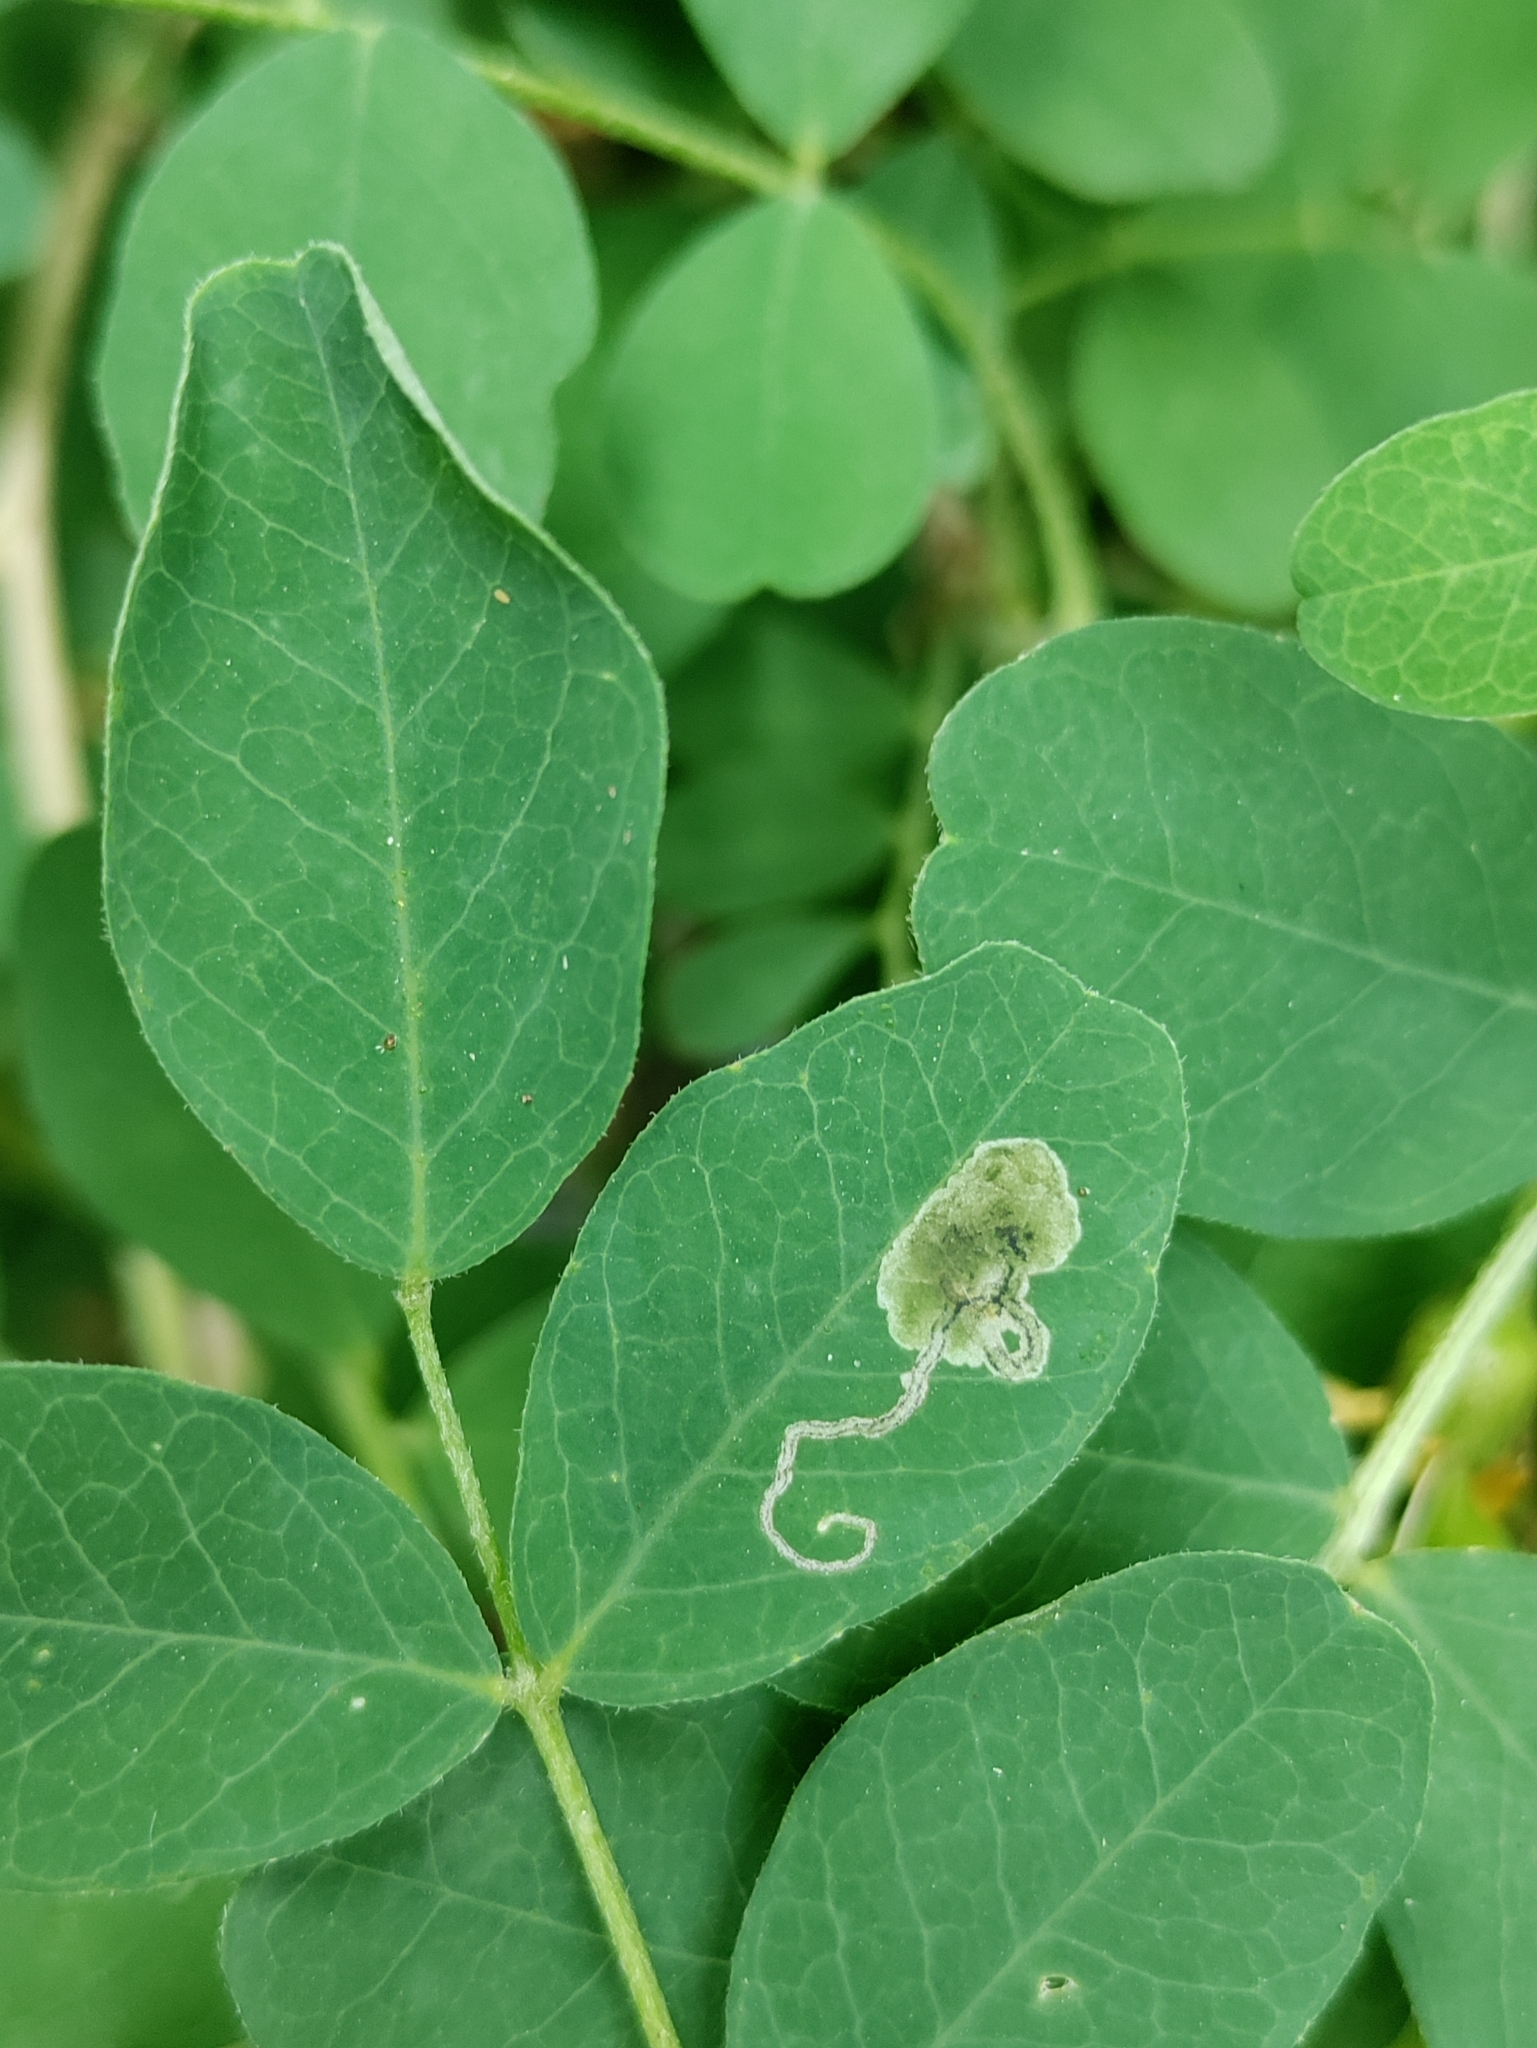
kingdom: Animalia
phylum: Arthropoda
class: Insecta
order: Diptera
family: Agromyzidae
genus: Phytoliriomyza
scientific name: Phytoliriomyza variegata
